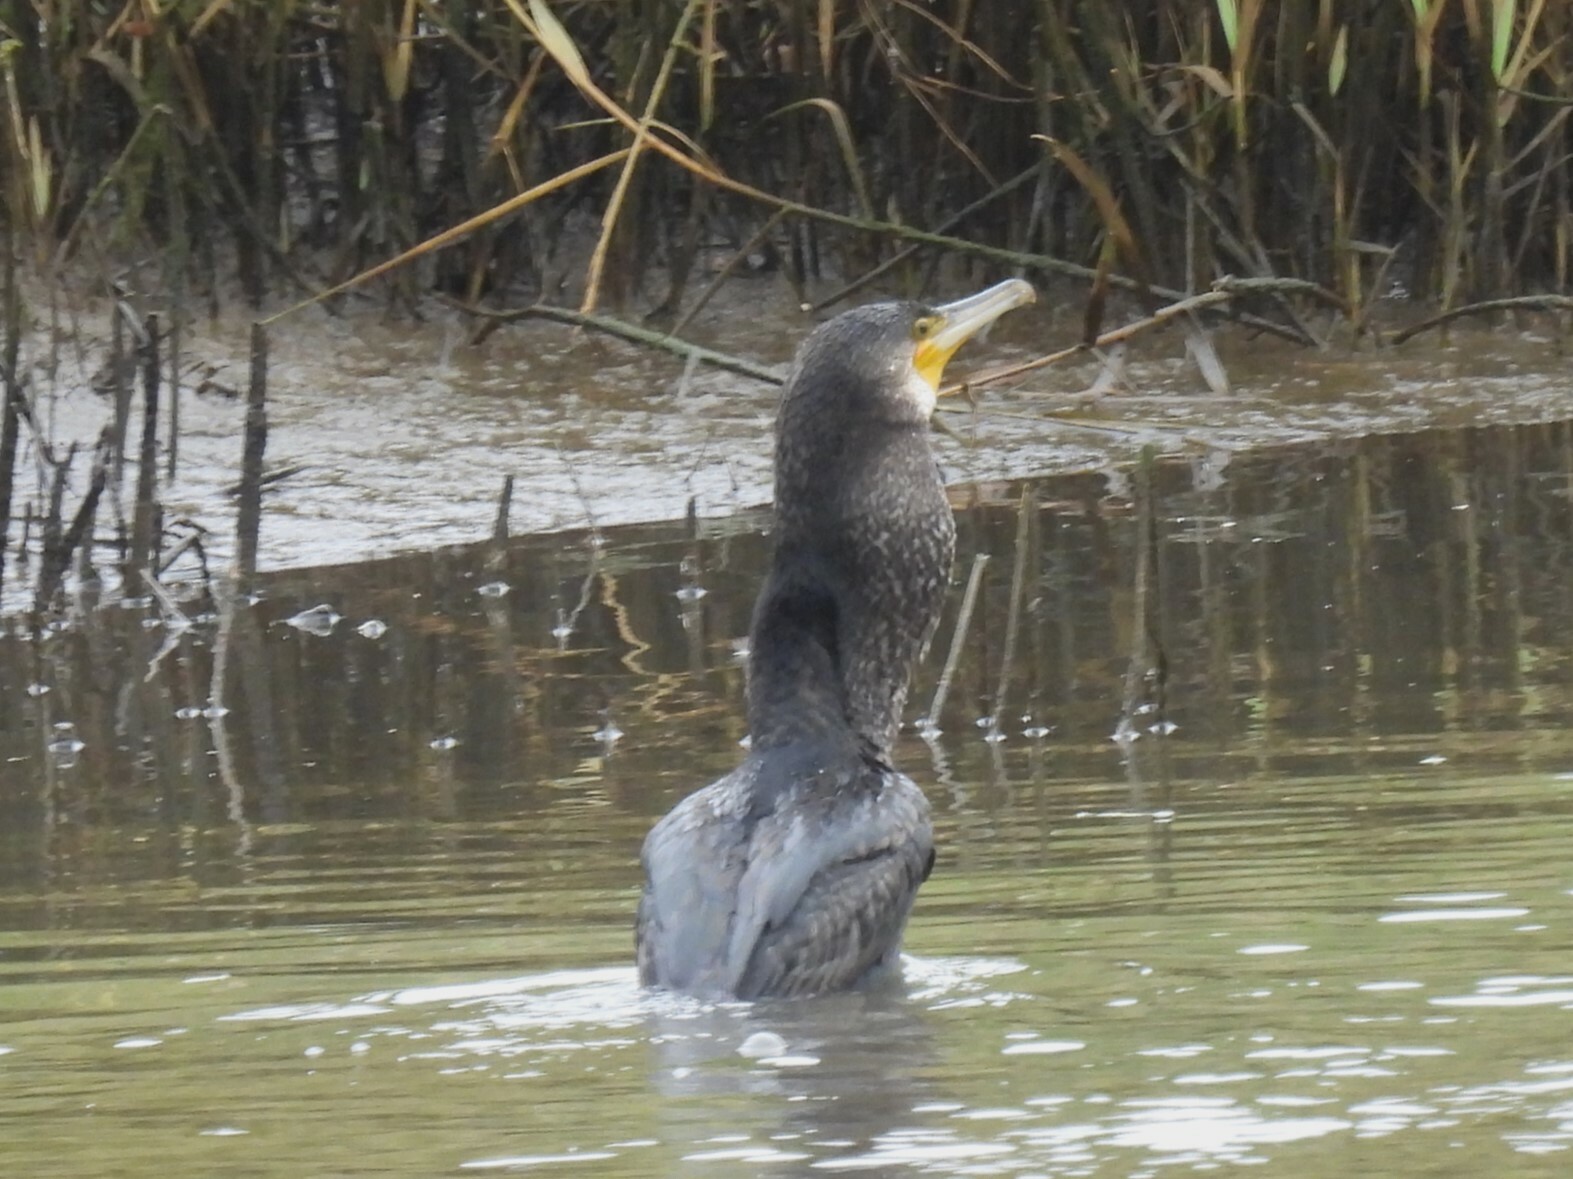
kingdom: Animalia
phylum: Chordata
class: Aves
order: Suliformes
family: Phalacrocoracidae
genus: Phalacrocorax
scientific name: Phalacrocorax carbo
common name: Great cormorant
